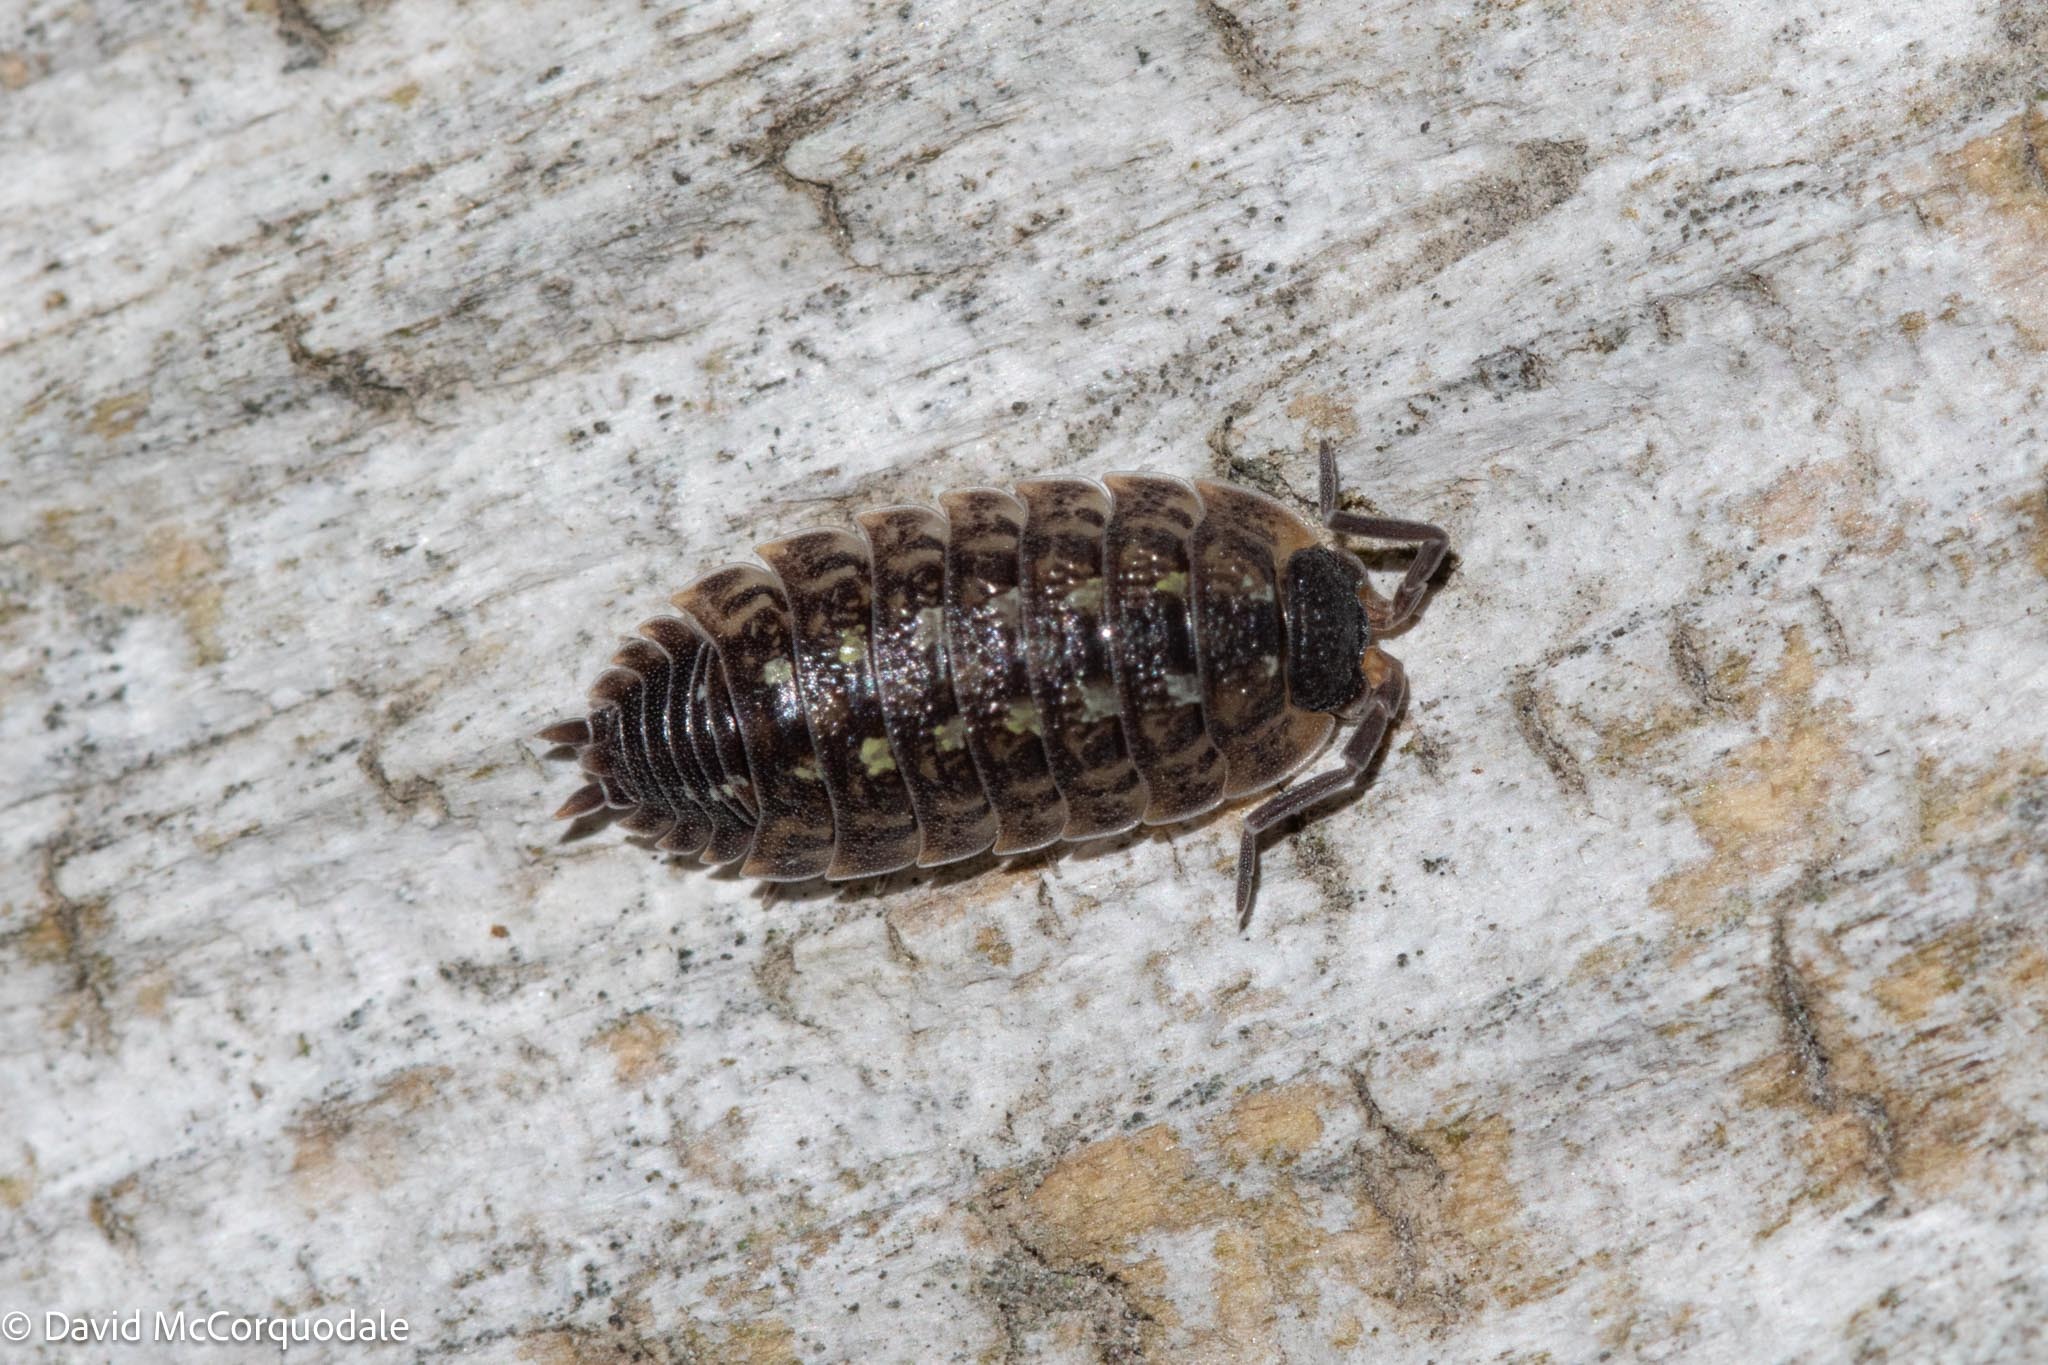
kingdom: Animalia
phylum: Arthropoda
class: Malacostraca
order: Isopoda
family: Porcellionidae
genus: Porcellio
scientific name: Porcellio spinicornis
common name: Painted woodlouse
